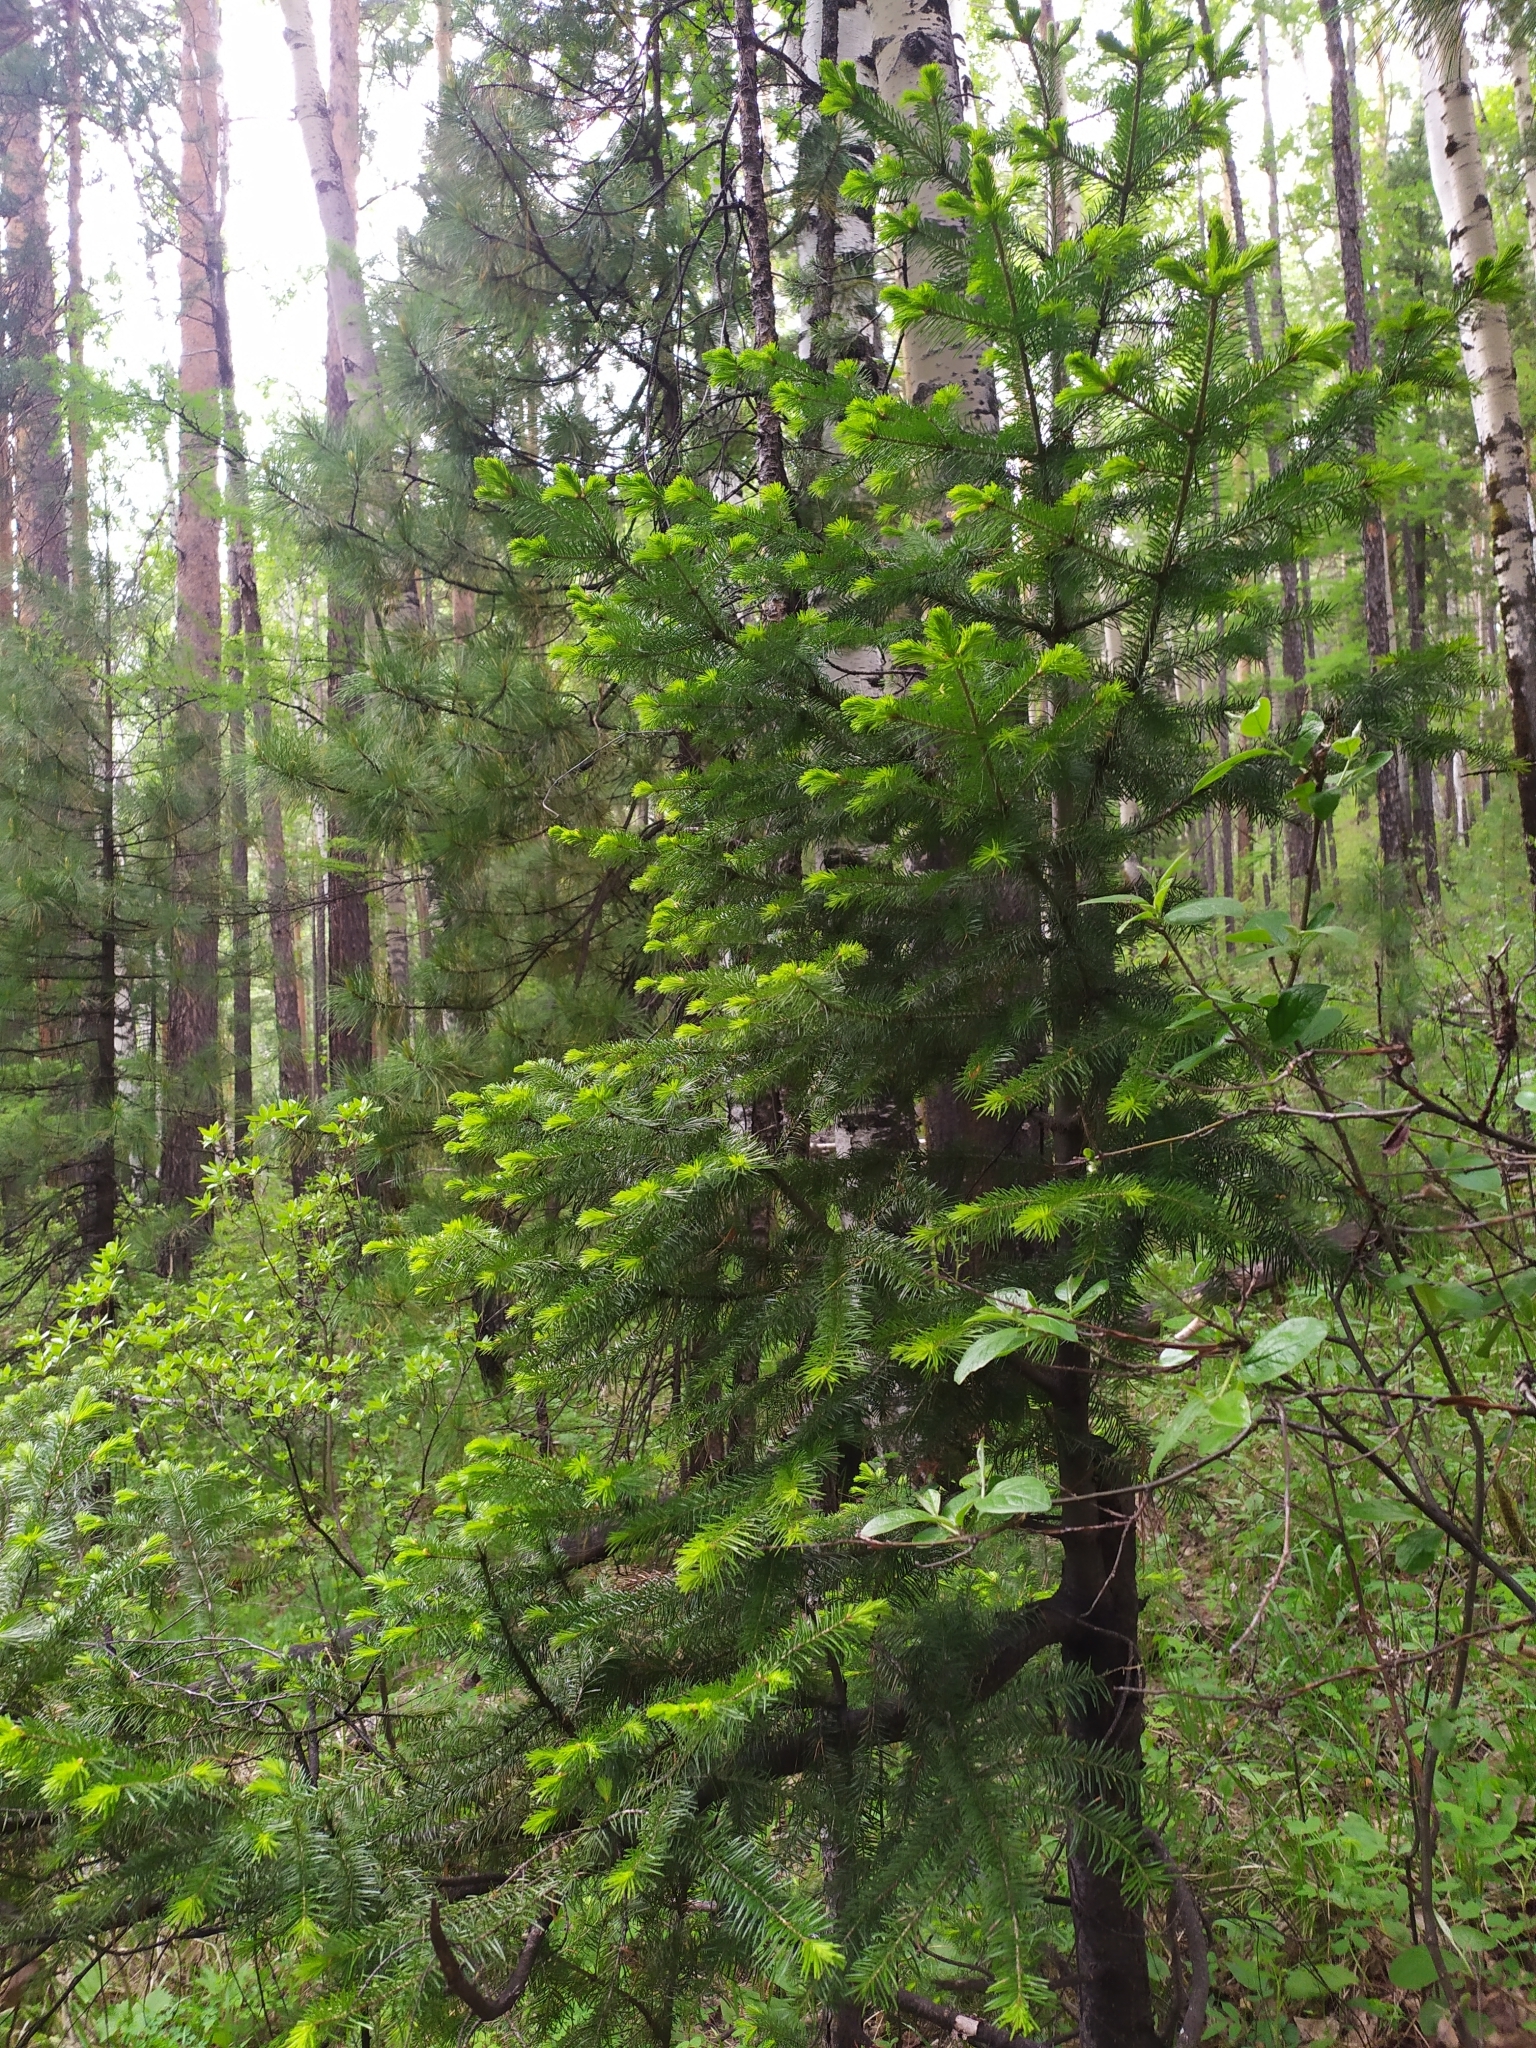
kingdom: Plantae
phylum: Tracheophyta
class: Pinopsida
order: Pinales
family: Pinaceae
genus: Abies
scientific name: Abies sibirica
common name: Siberian fir
